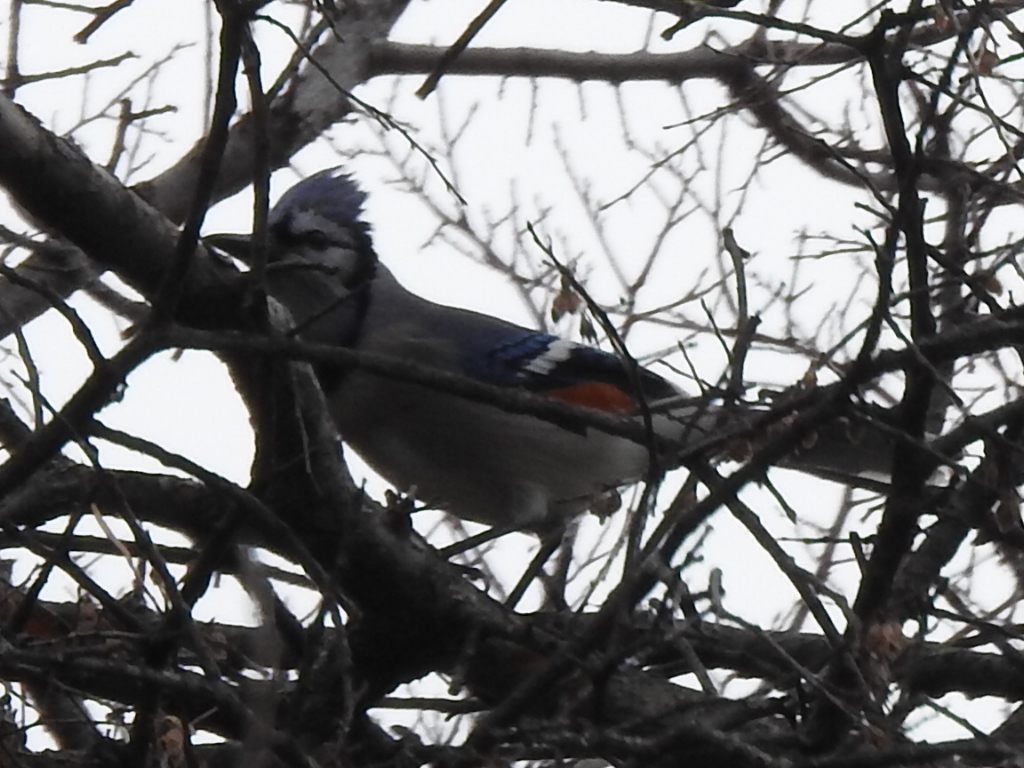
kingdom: Animalia
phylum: Chordata
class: Aves
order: Passeriformes
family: Corvidae
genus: Cyanocitta
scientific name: Cyanocitta cristata
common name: Blue jay
